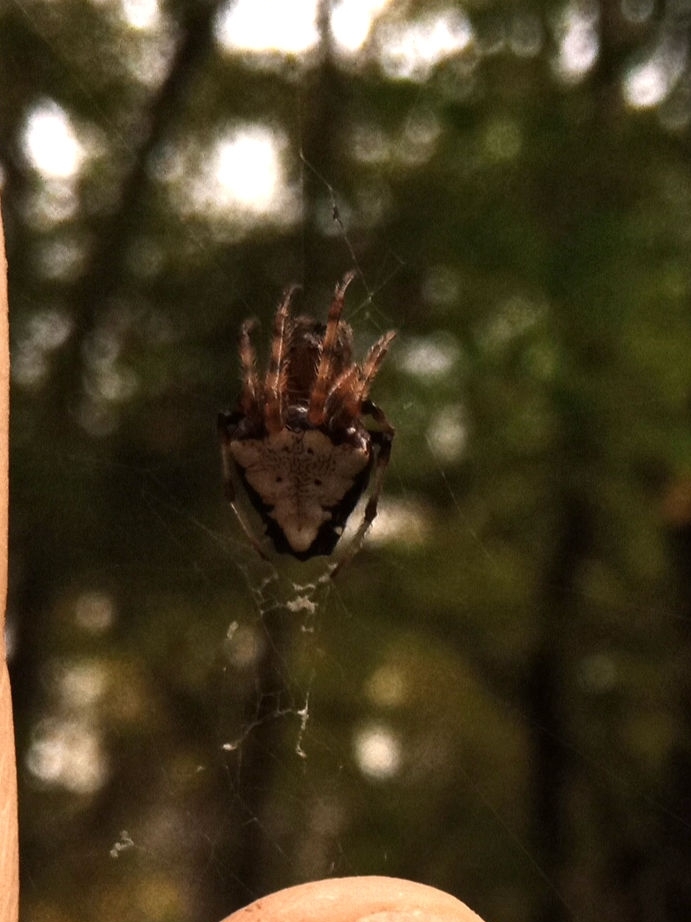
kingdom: Animalia
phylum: Arthropoda
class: Arachnida
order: Araneae
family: Araneidae
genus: Verrucosa
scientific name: Verrucosa arenata
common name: Orb weavers
